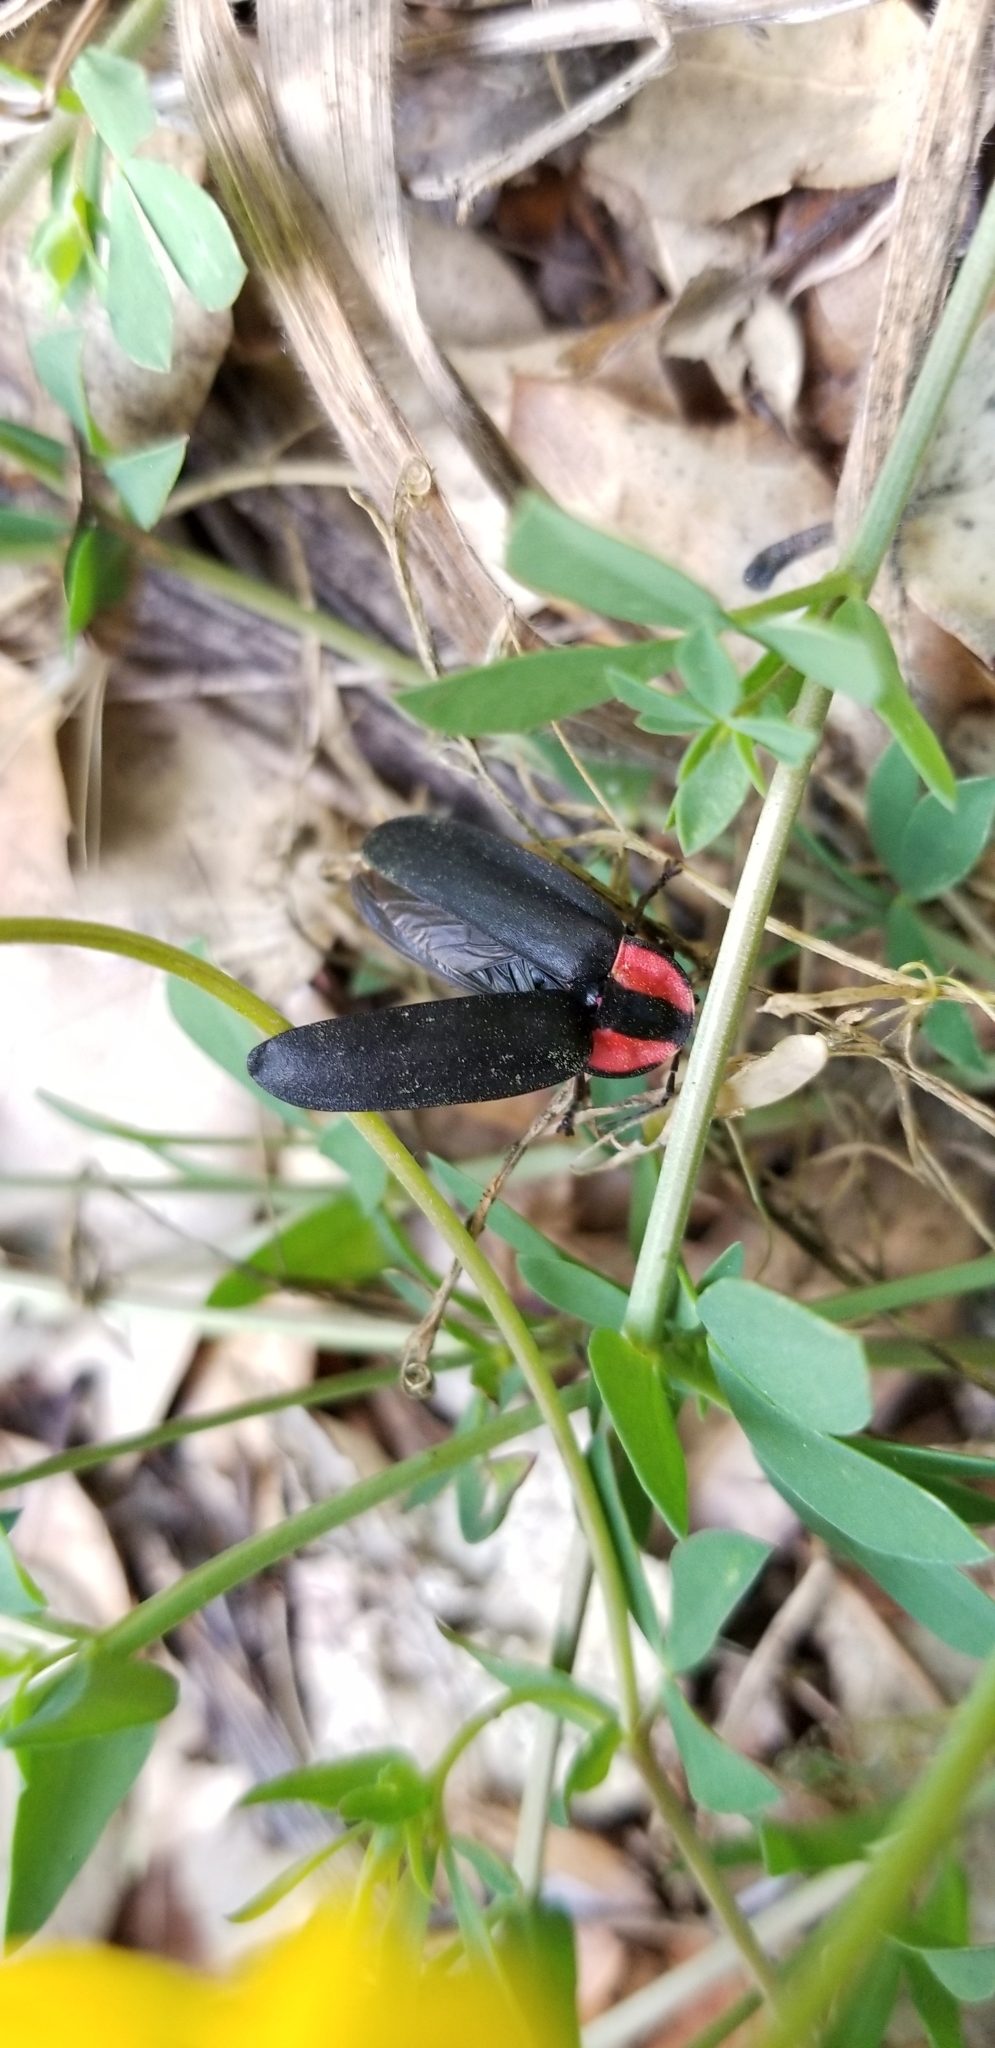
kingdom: Animalia
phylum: Arthropoda
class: Insecta
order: Coleoptera
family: Lampyridae
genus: Ellychnia
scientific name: Ellychnia megista
